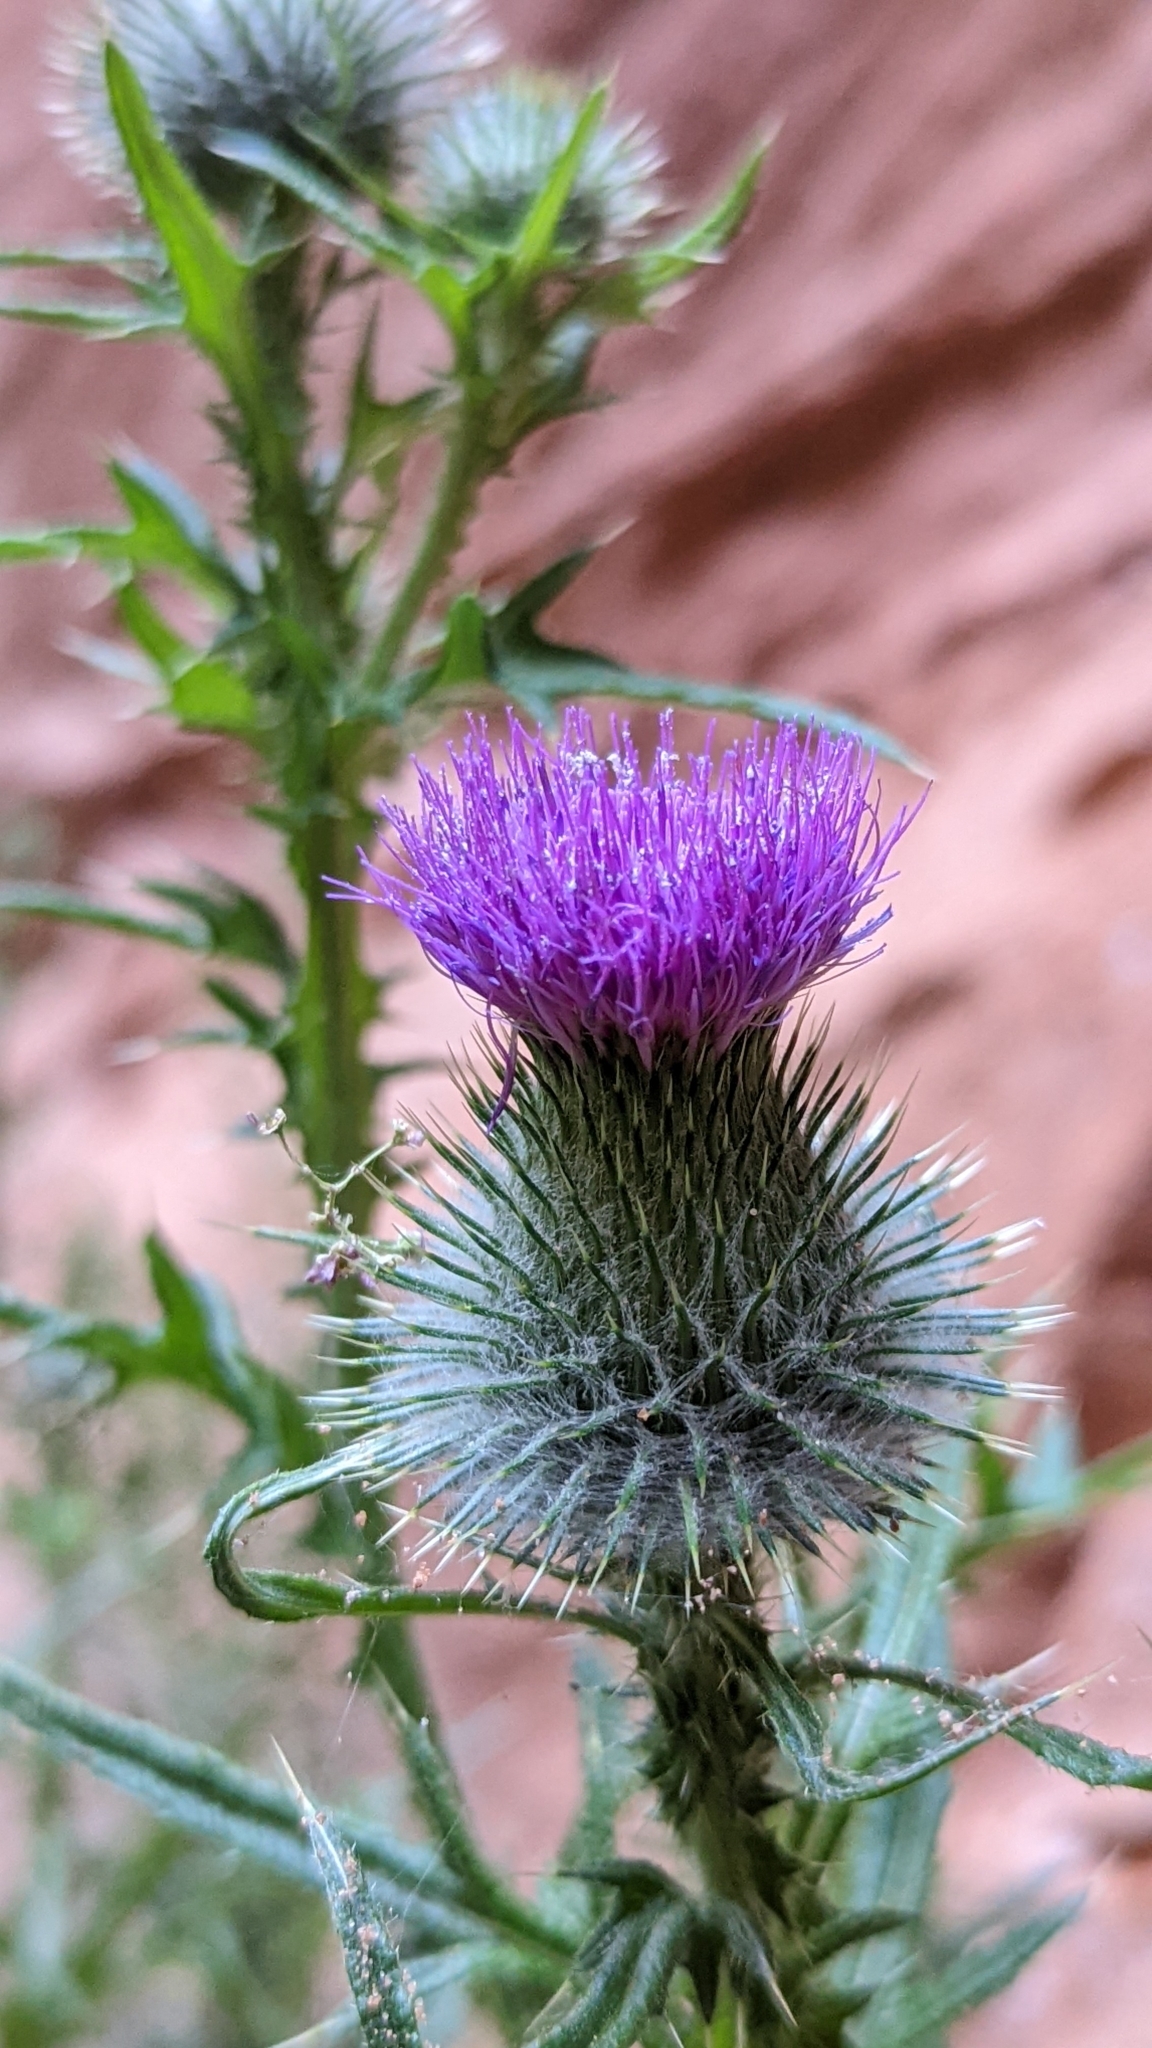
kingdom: Plantae
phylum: Tracheophyta
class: Magnoliopsida
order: Asterales
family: Asteraceae
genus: Cirsium
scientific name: Cirsium vulgare
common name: Bull thistle
